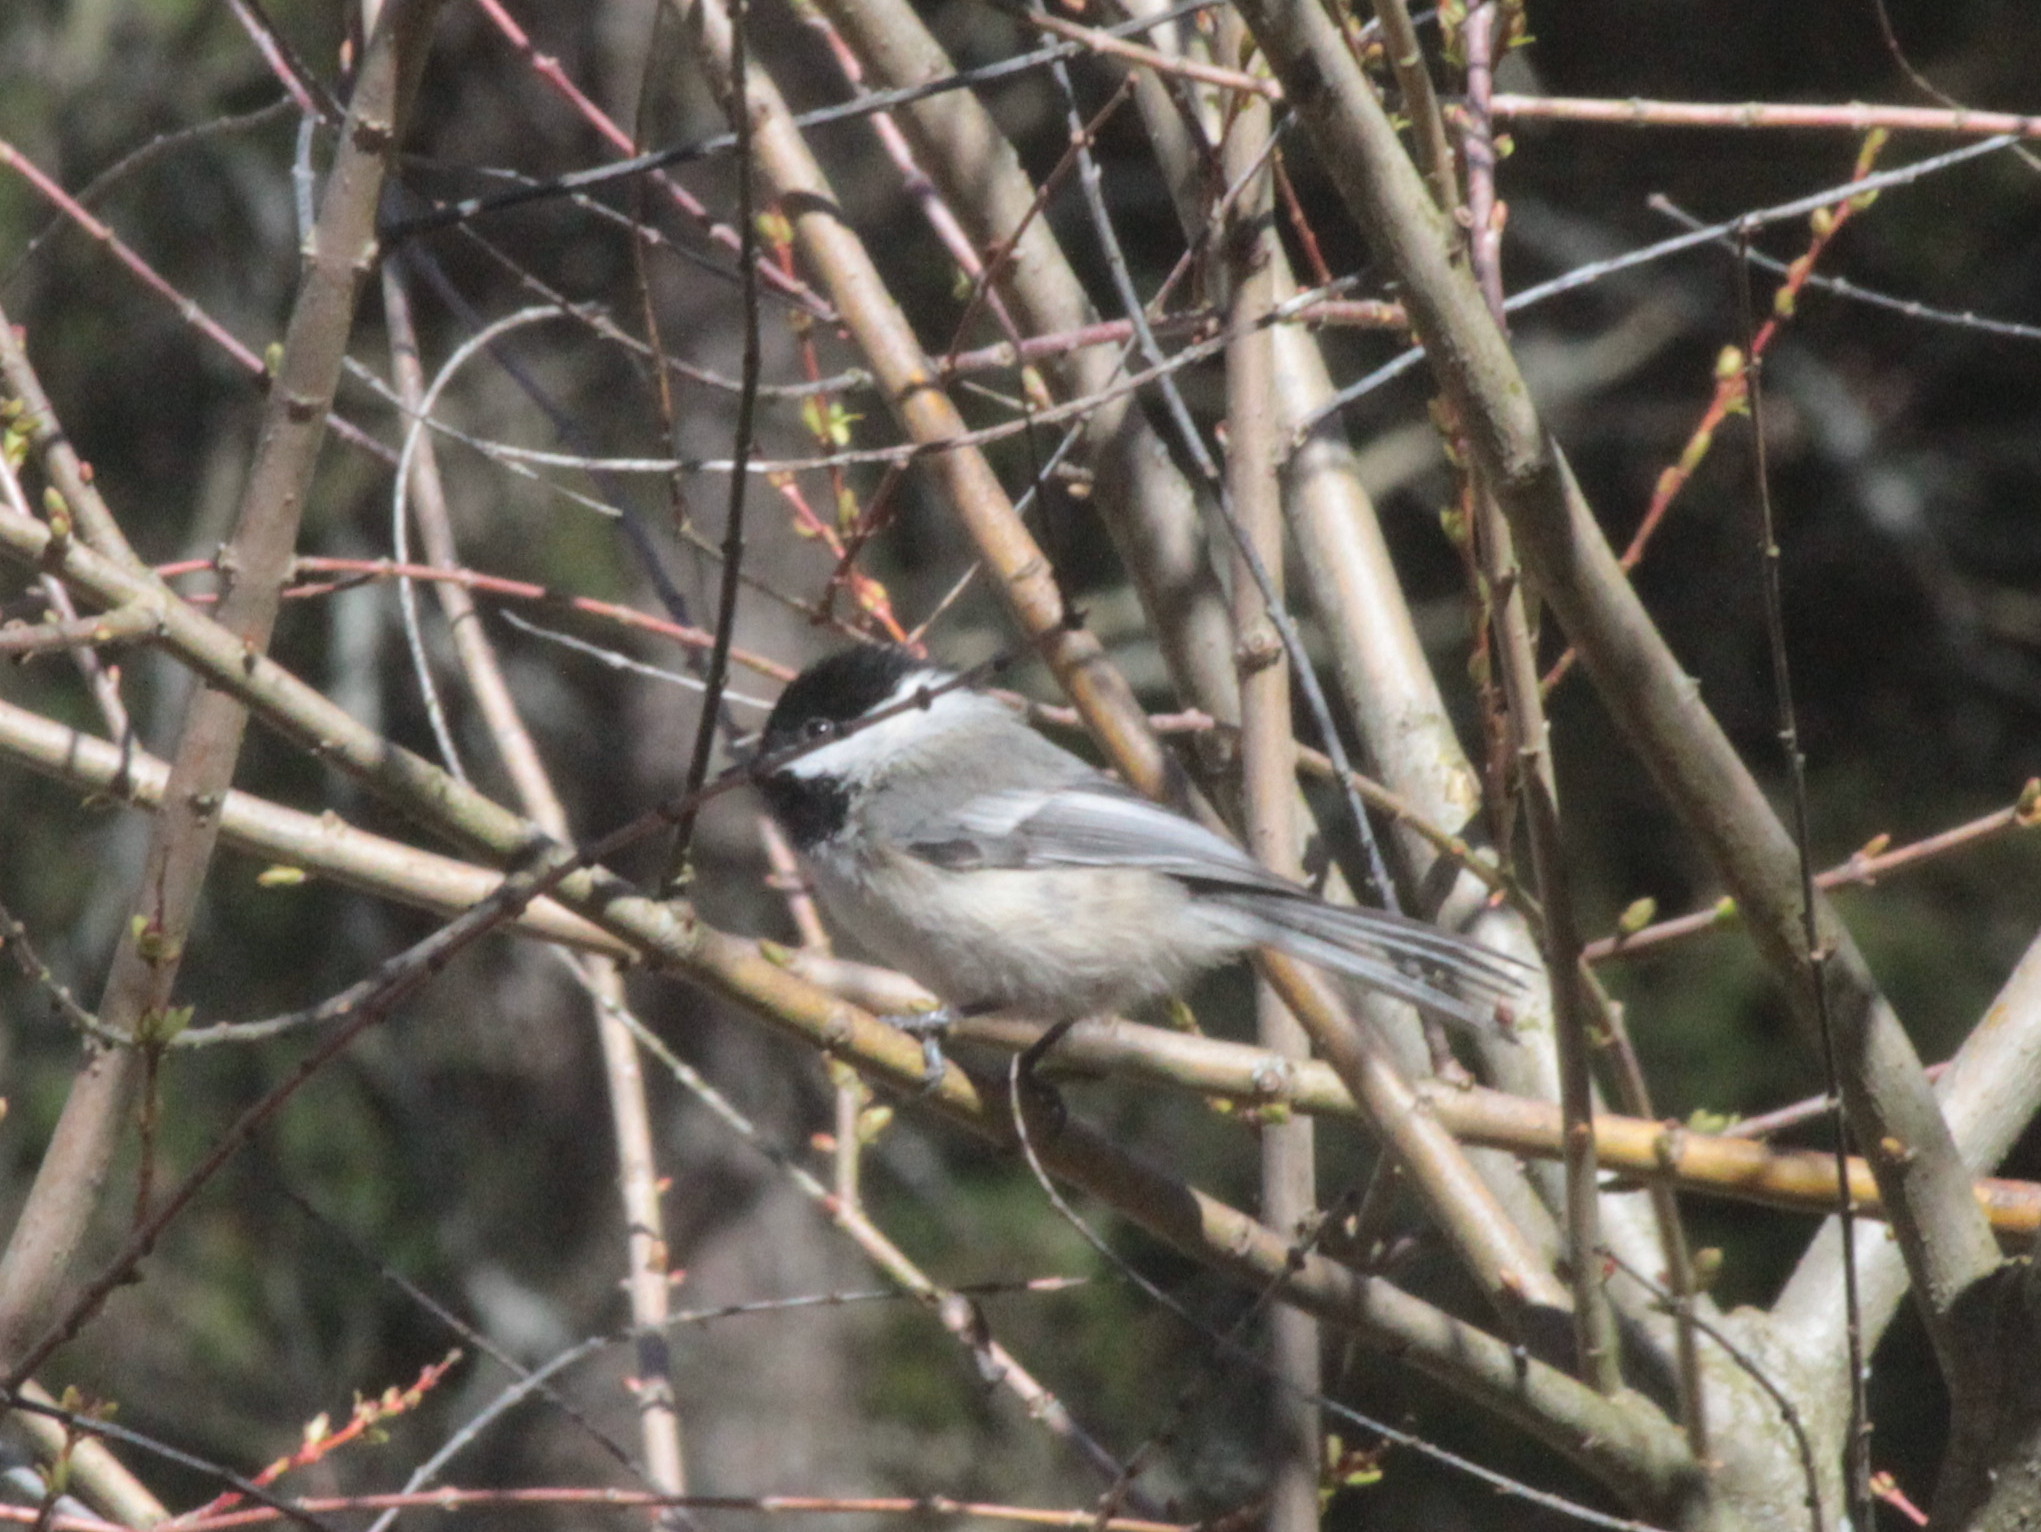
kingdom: Animalia
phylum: Chordata
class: Aves
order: Passeriformes
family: Paridae
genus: Poecile
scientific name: Poecile atricapillus
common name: Black-capped chickadee
